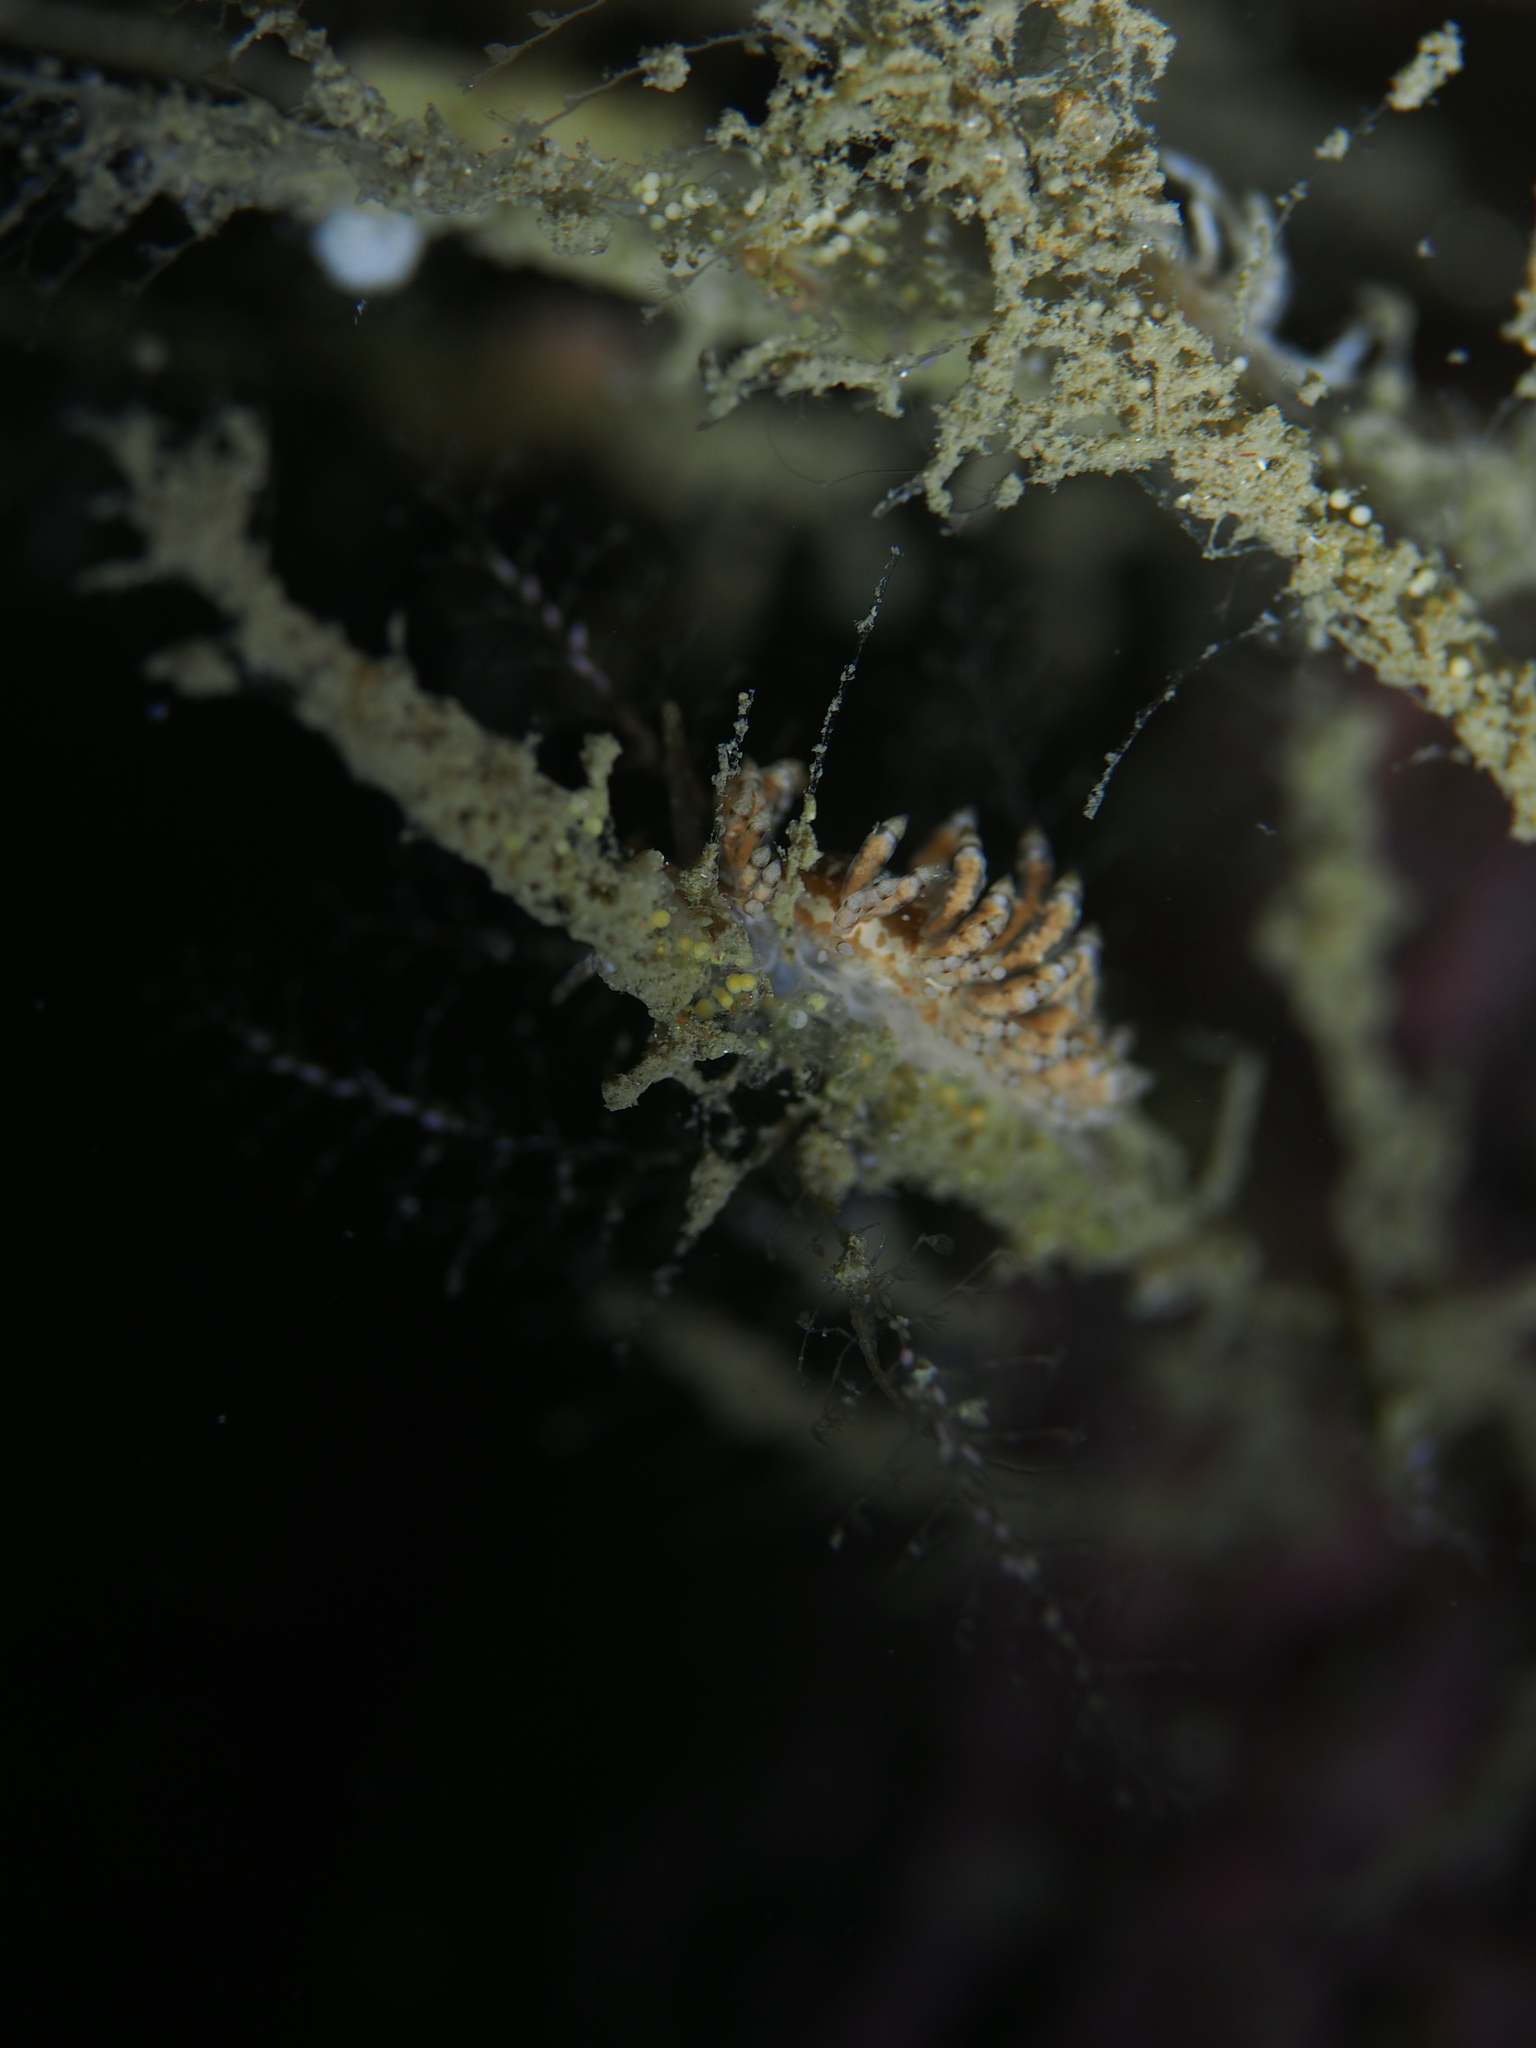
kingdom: Animalia
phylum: Mollusca
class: Gastropoda
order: Nudibranchia
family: Eubranchidae
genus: Eubranchus
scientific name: Eubranchus vittatus
